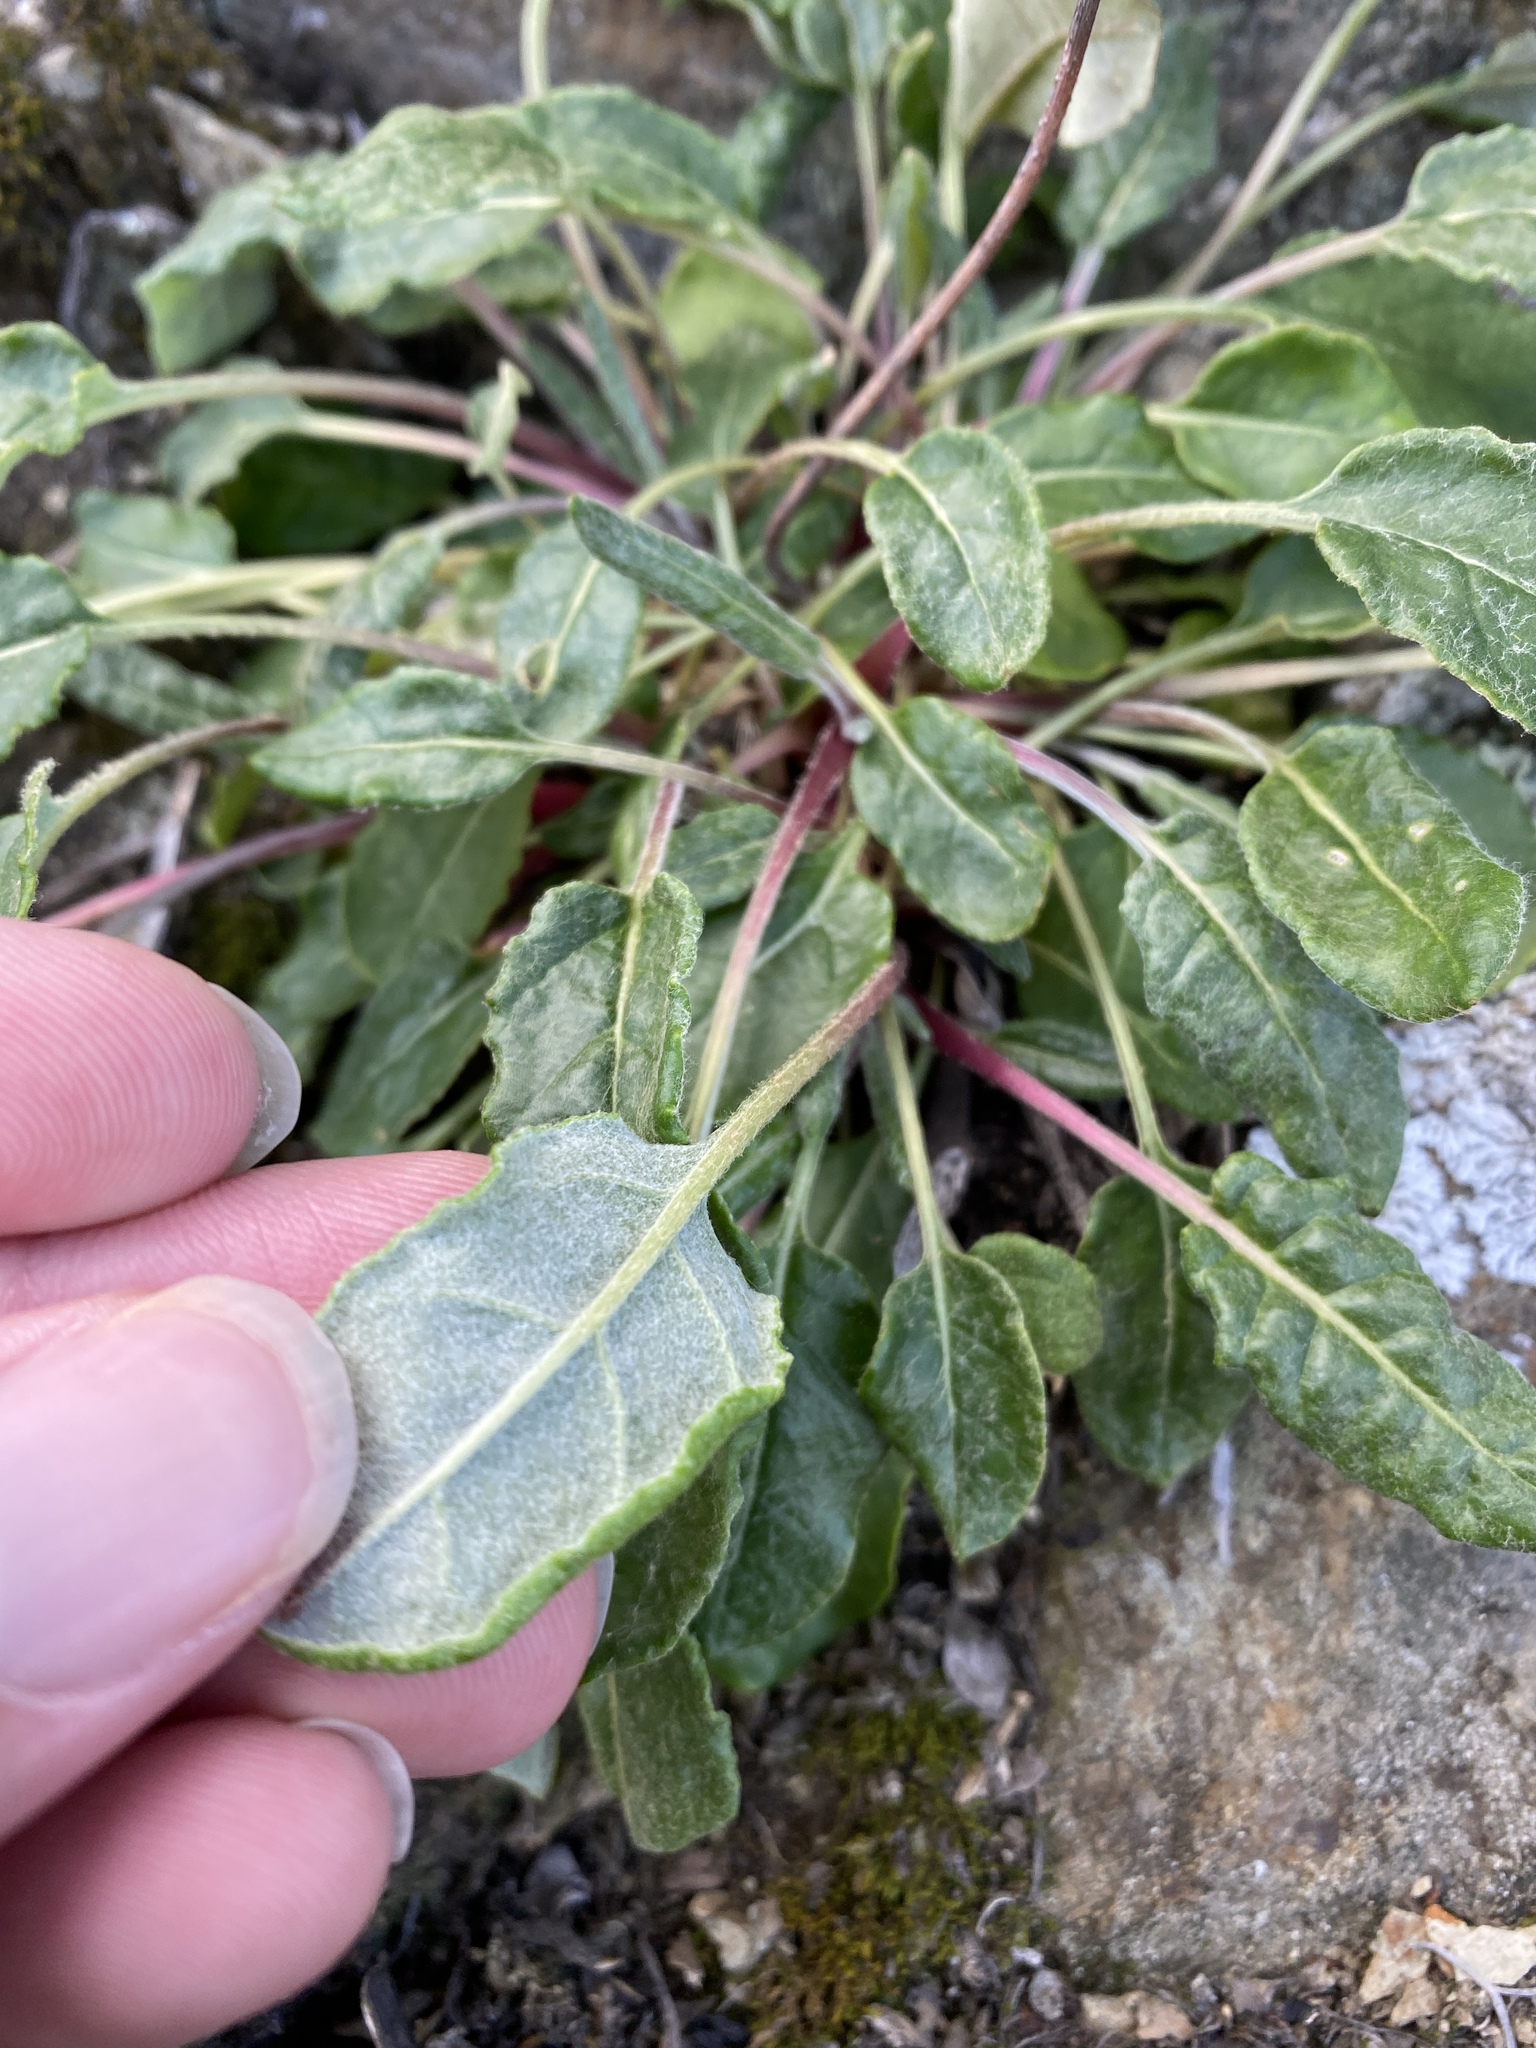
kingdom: Plantae
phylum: Tracheophyta
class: Magnoliopsida
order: Caryophyllales
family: Polygonaceae
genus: Eriogonum
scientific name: Eriogonum latifolium
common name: Seaside wild buckwheat
